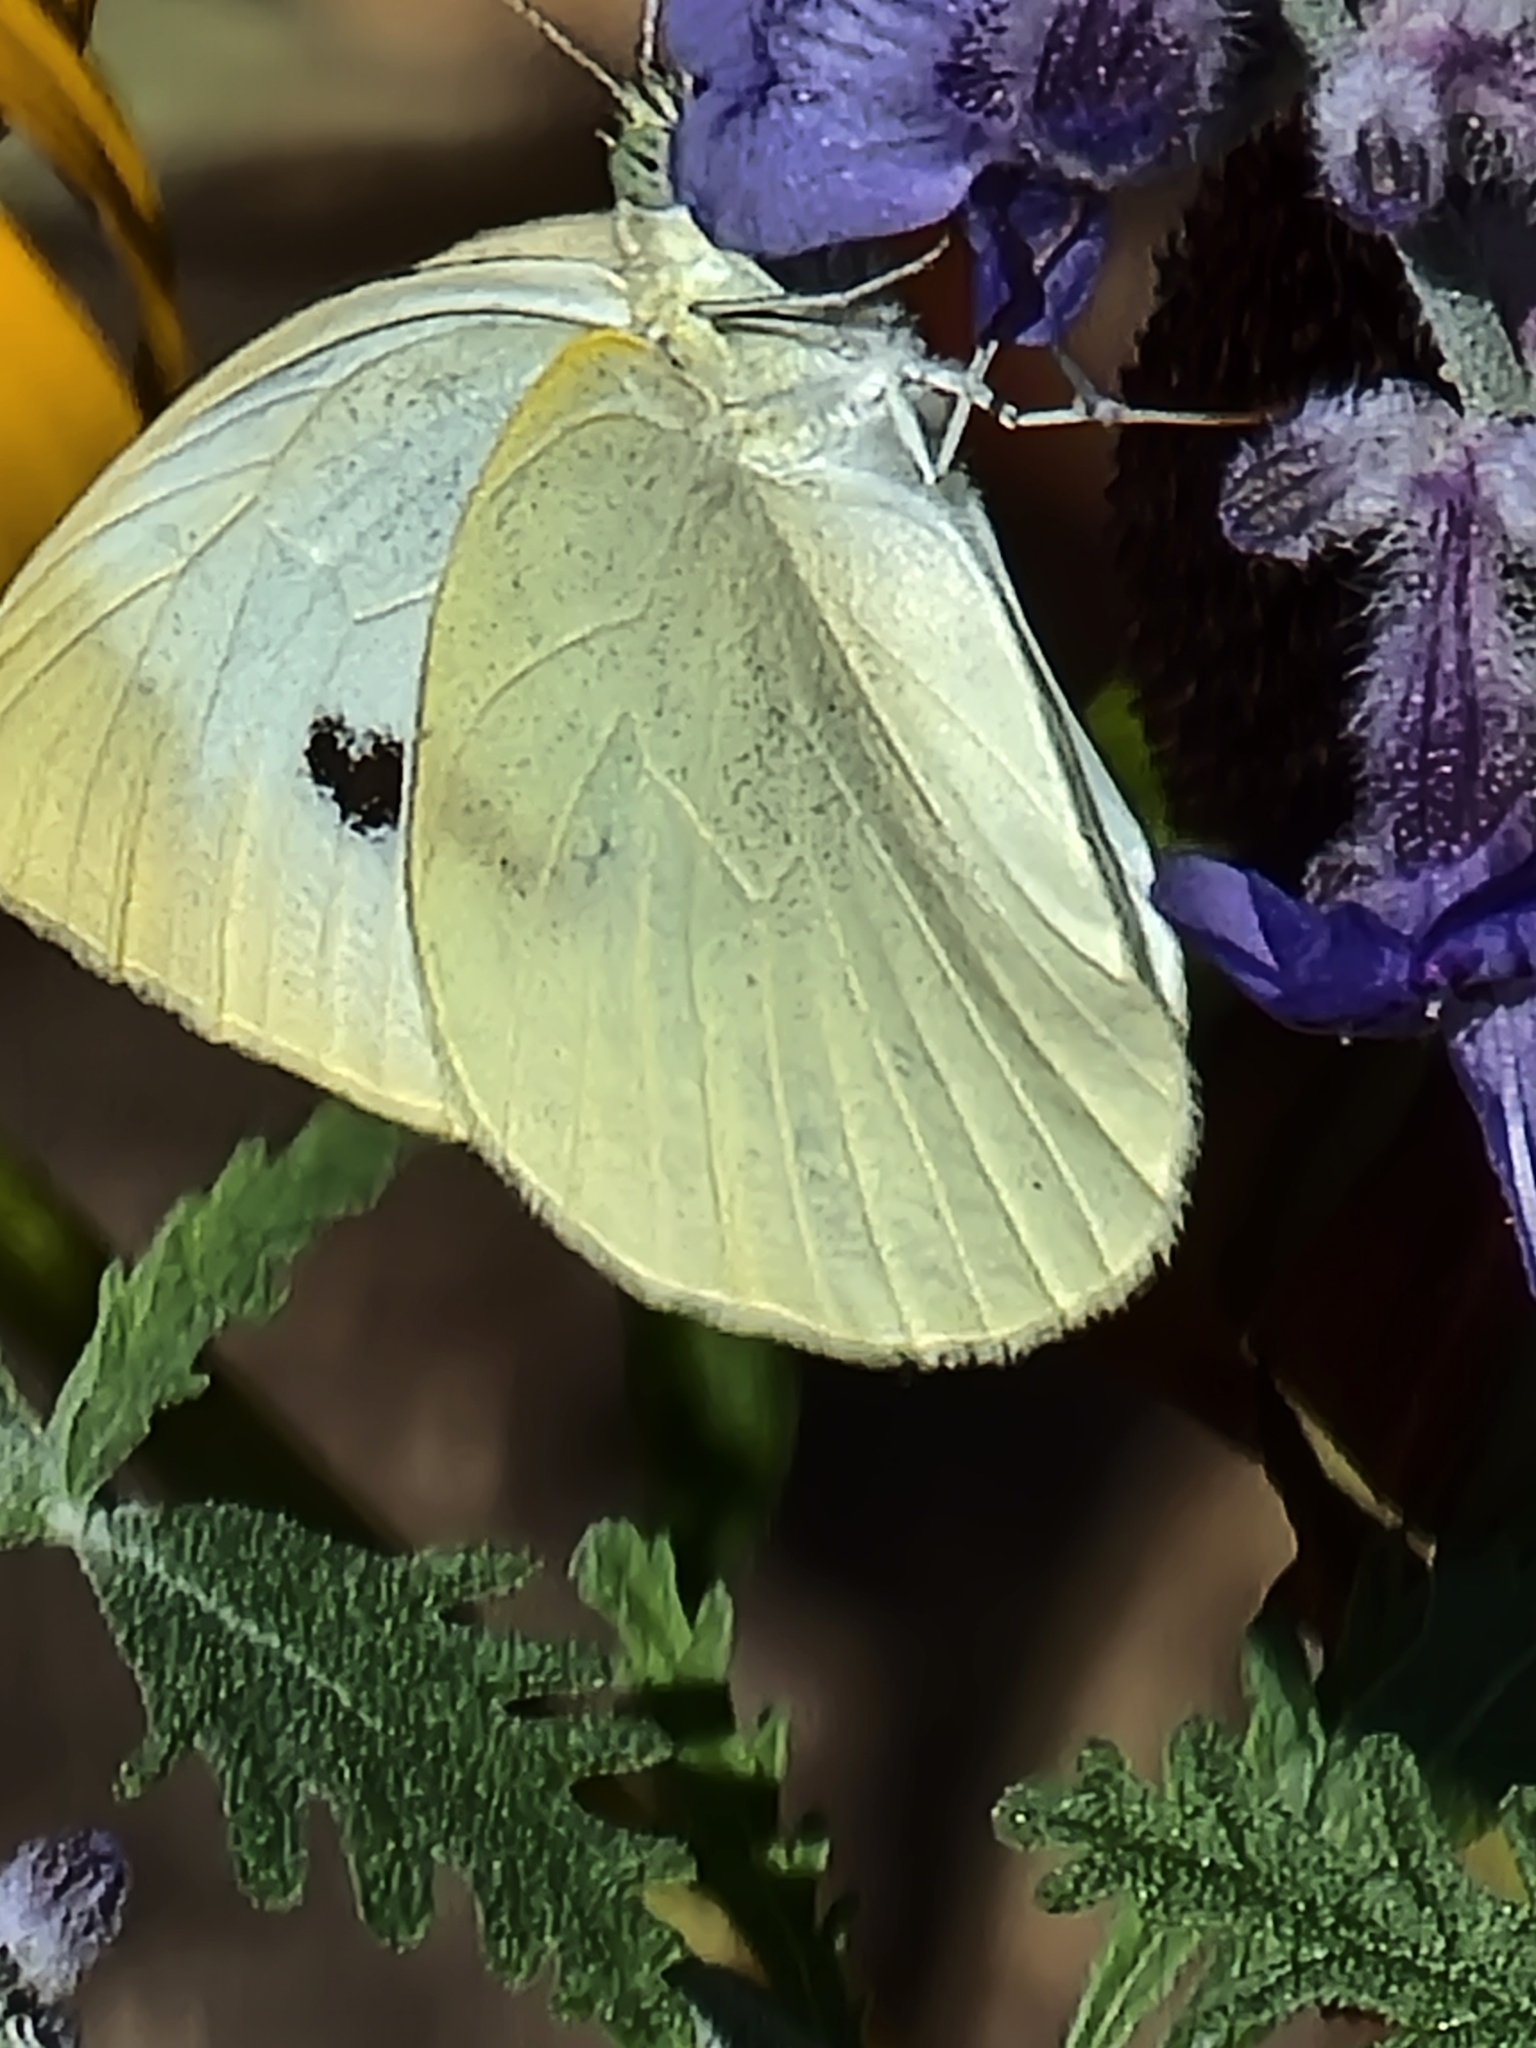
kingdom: Animalia
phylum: Arthropoda
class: Insecta
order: Lepidoptera
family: Pieridae
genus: Pieris
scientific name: Pieris rapae
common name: Small white
